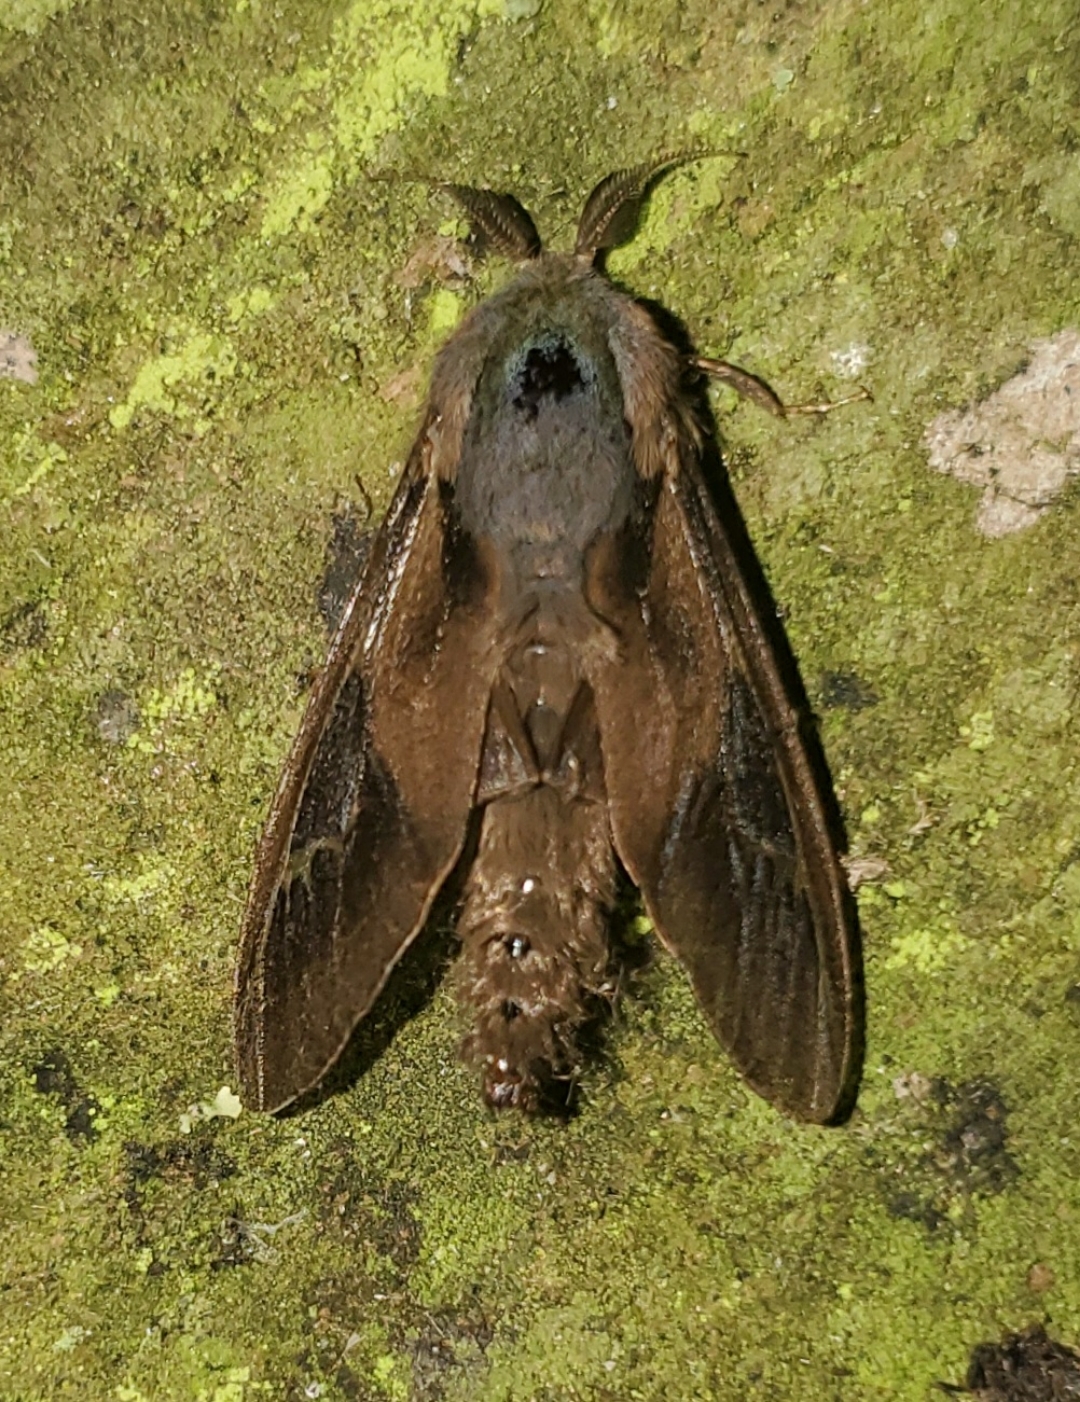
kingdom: Animalia
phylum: Arthropoda
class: Insecta
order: Lepidoptera
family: Psychidae
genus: Oiketicus
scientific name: Oiketicus
